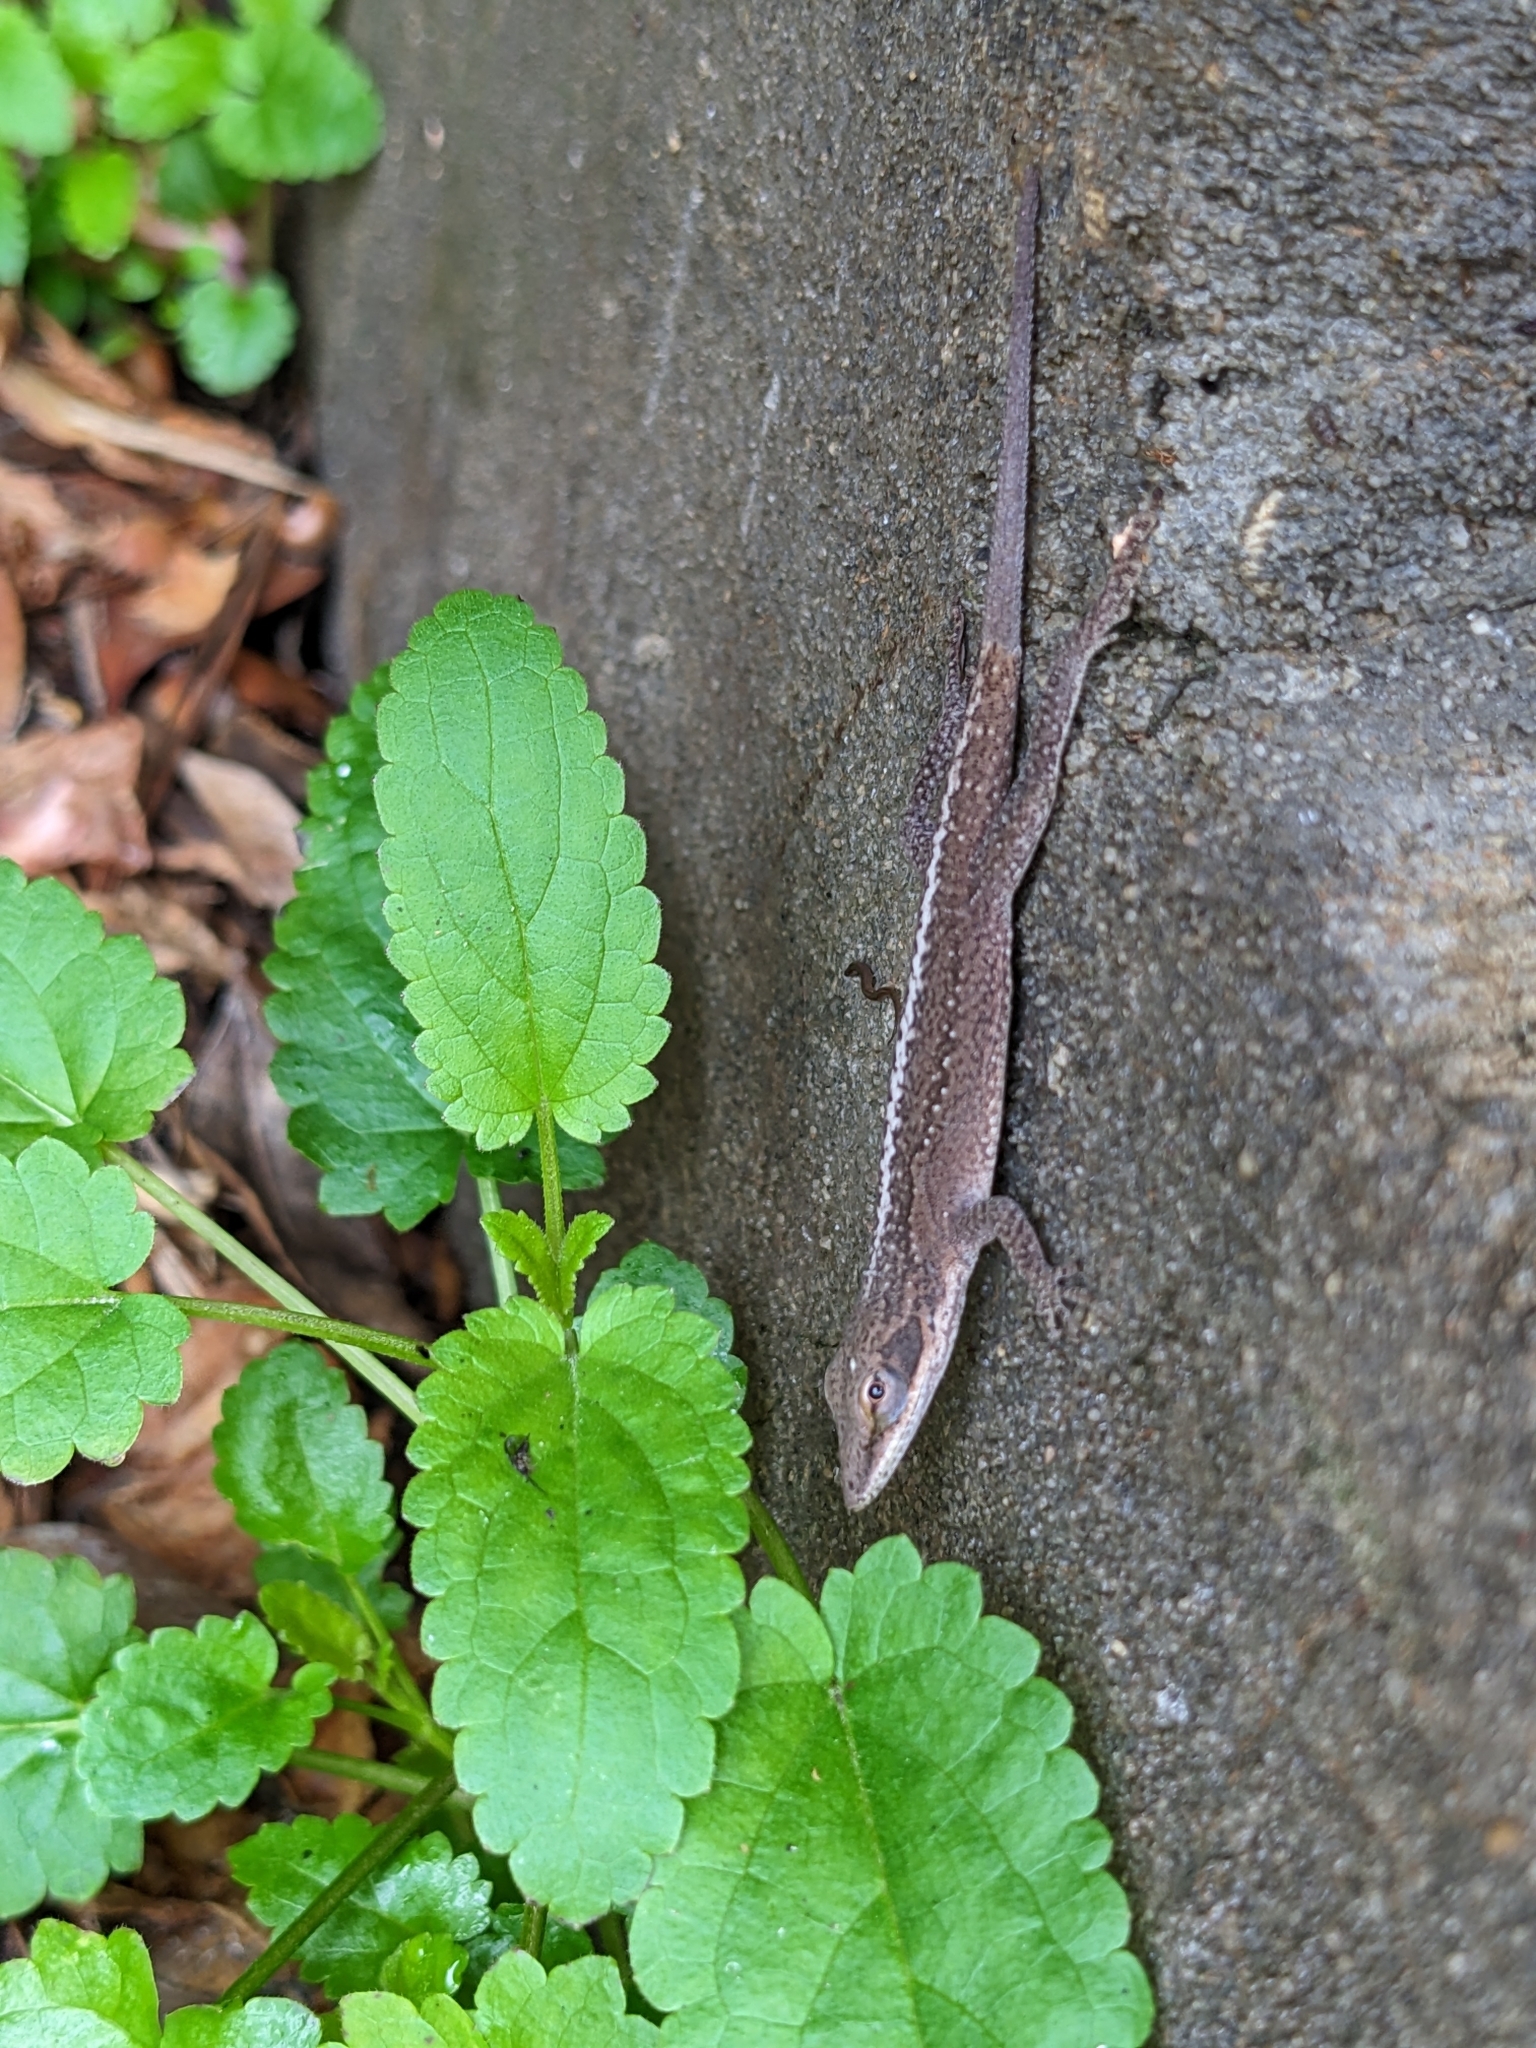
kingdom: Animalia
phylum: Chordata
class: Squamata
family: Dactyloidae
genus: Anolis
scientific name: Anolis carolinensis
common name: Green anole
